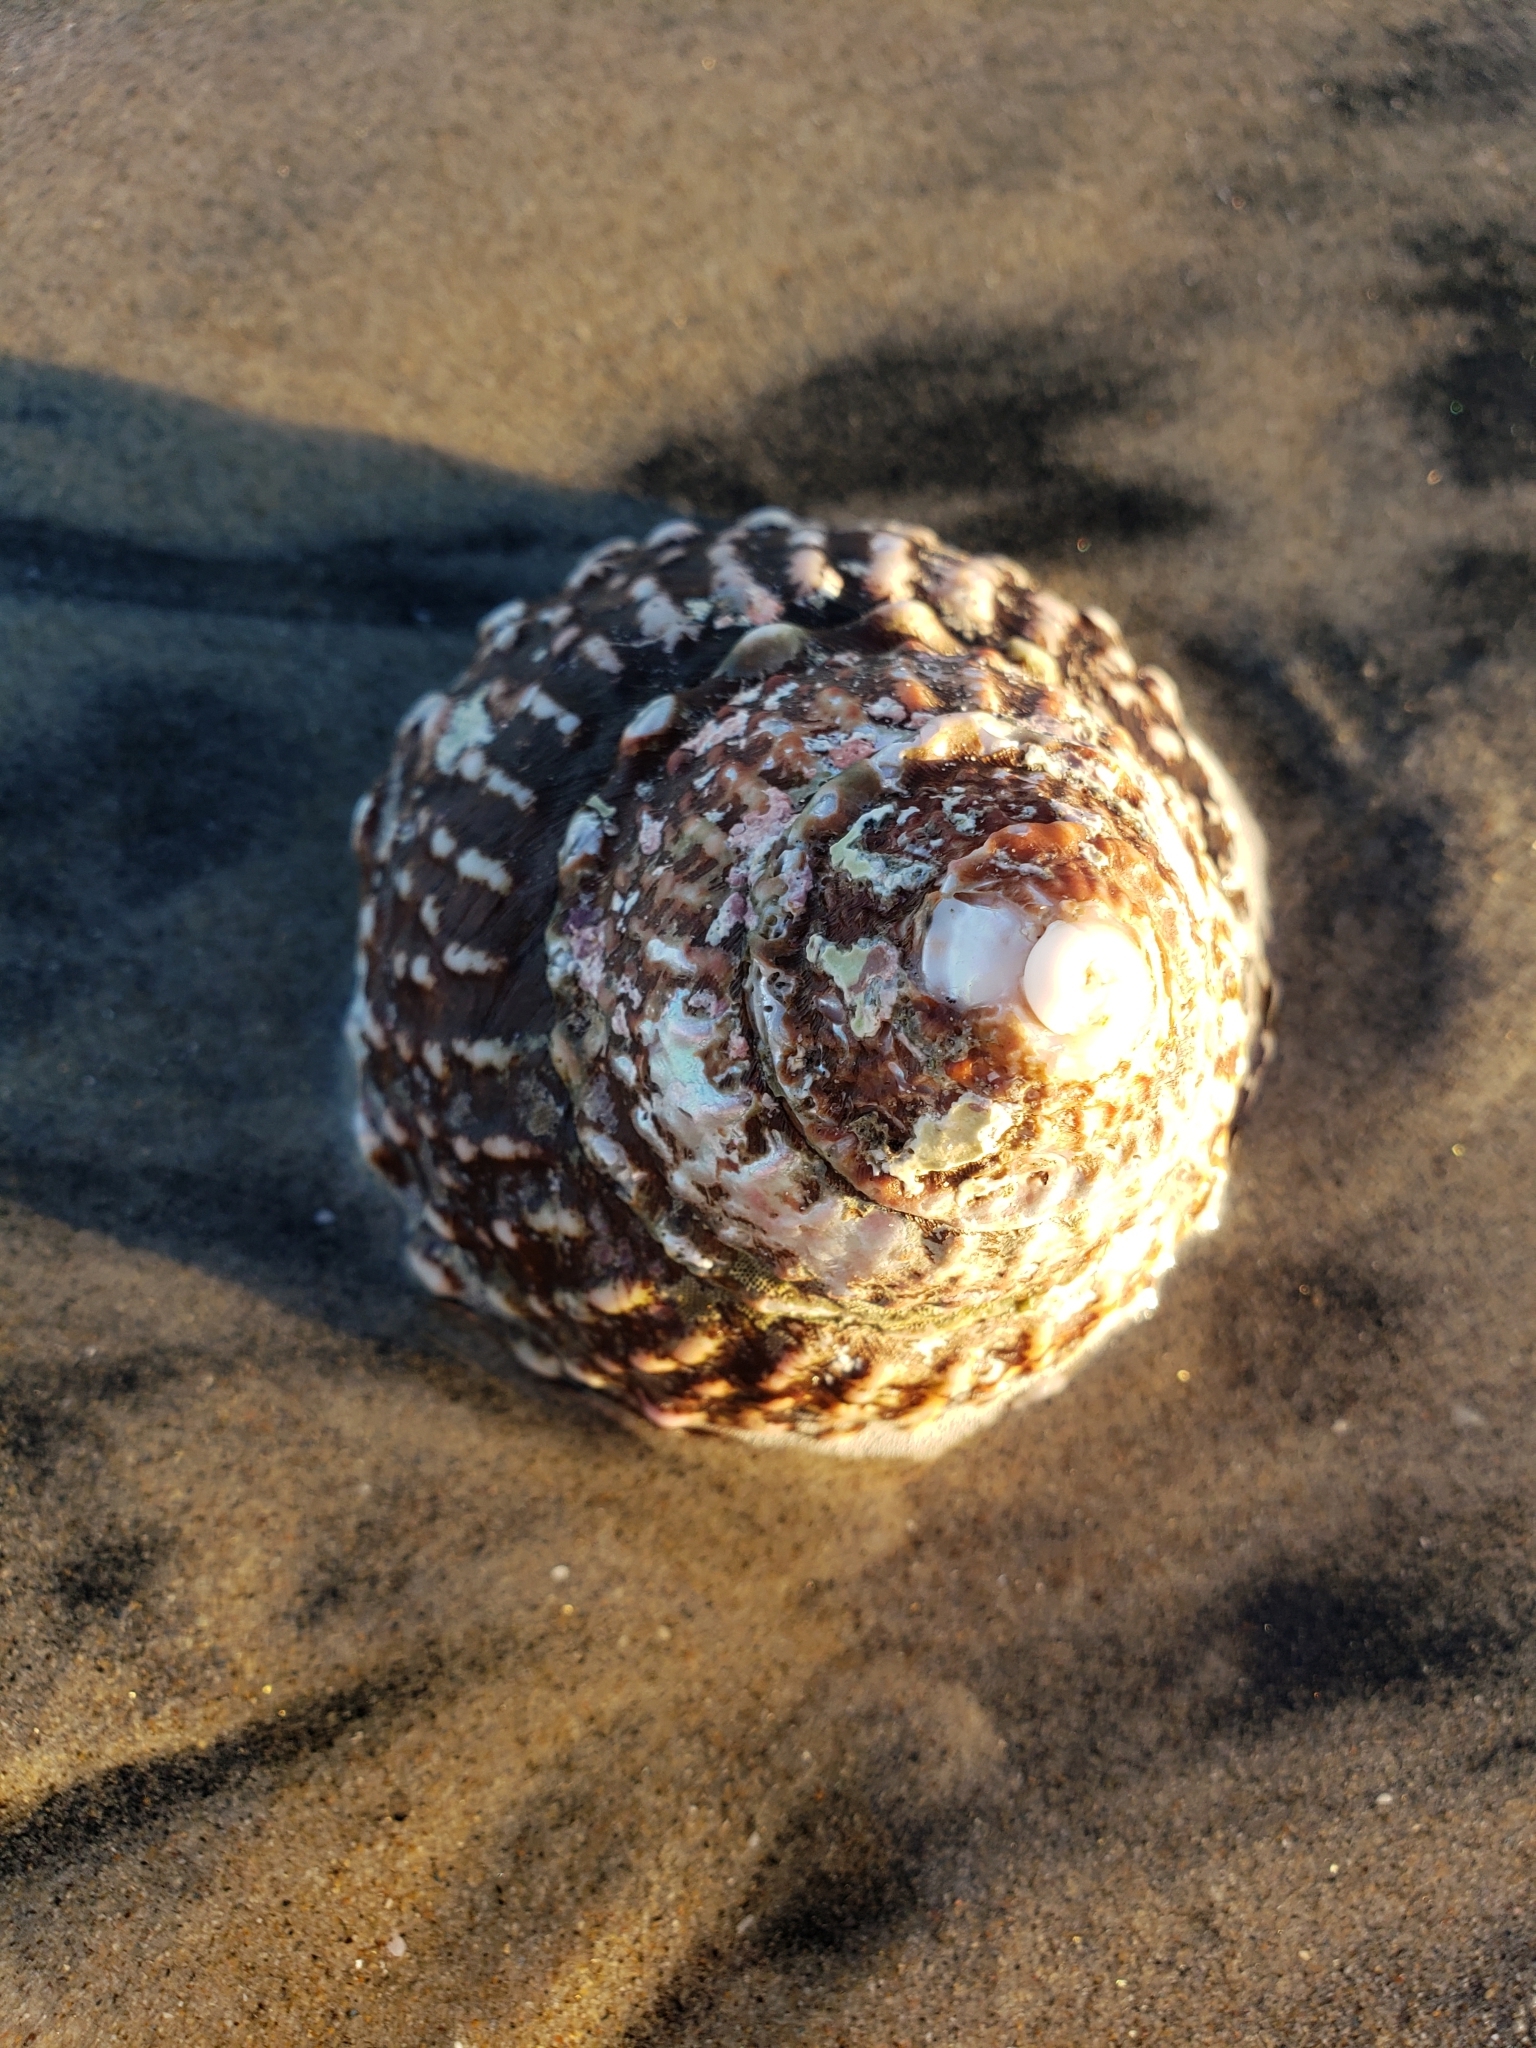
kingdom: Animalia
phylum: Mollusca
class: Gastropoda
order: Trochida
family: Turbinidae
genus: Megastraea
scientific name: Megastraea undosa
